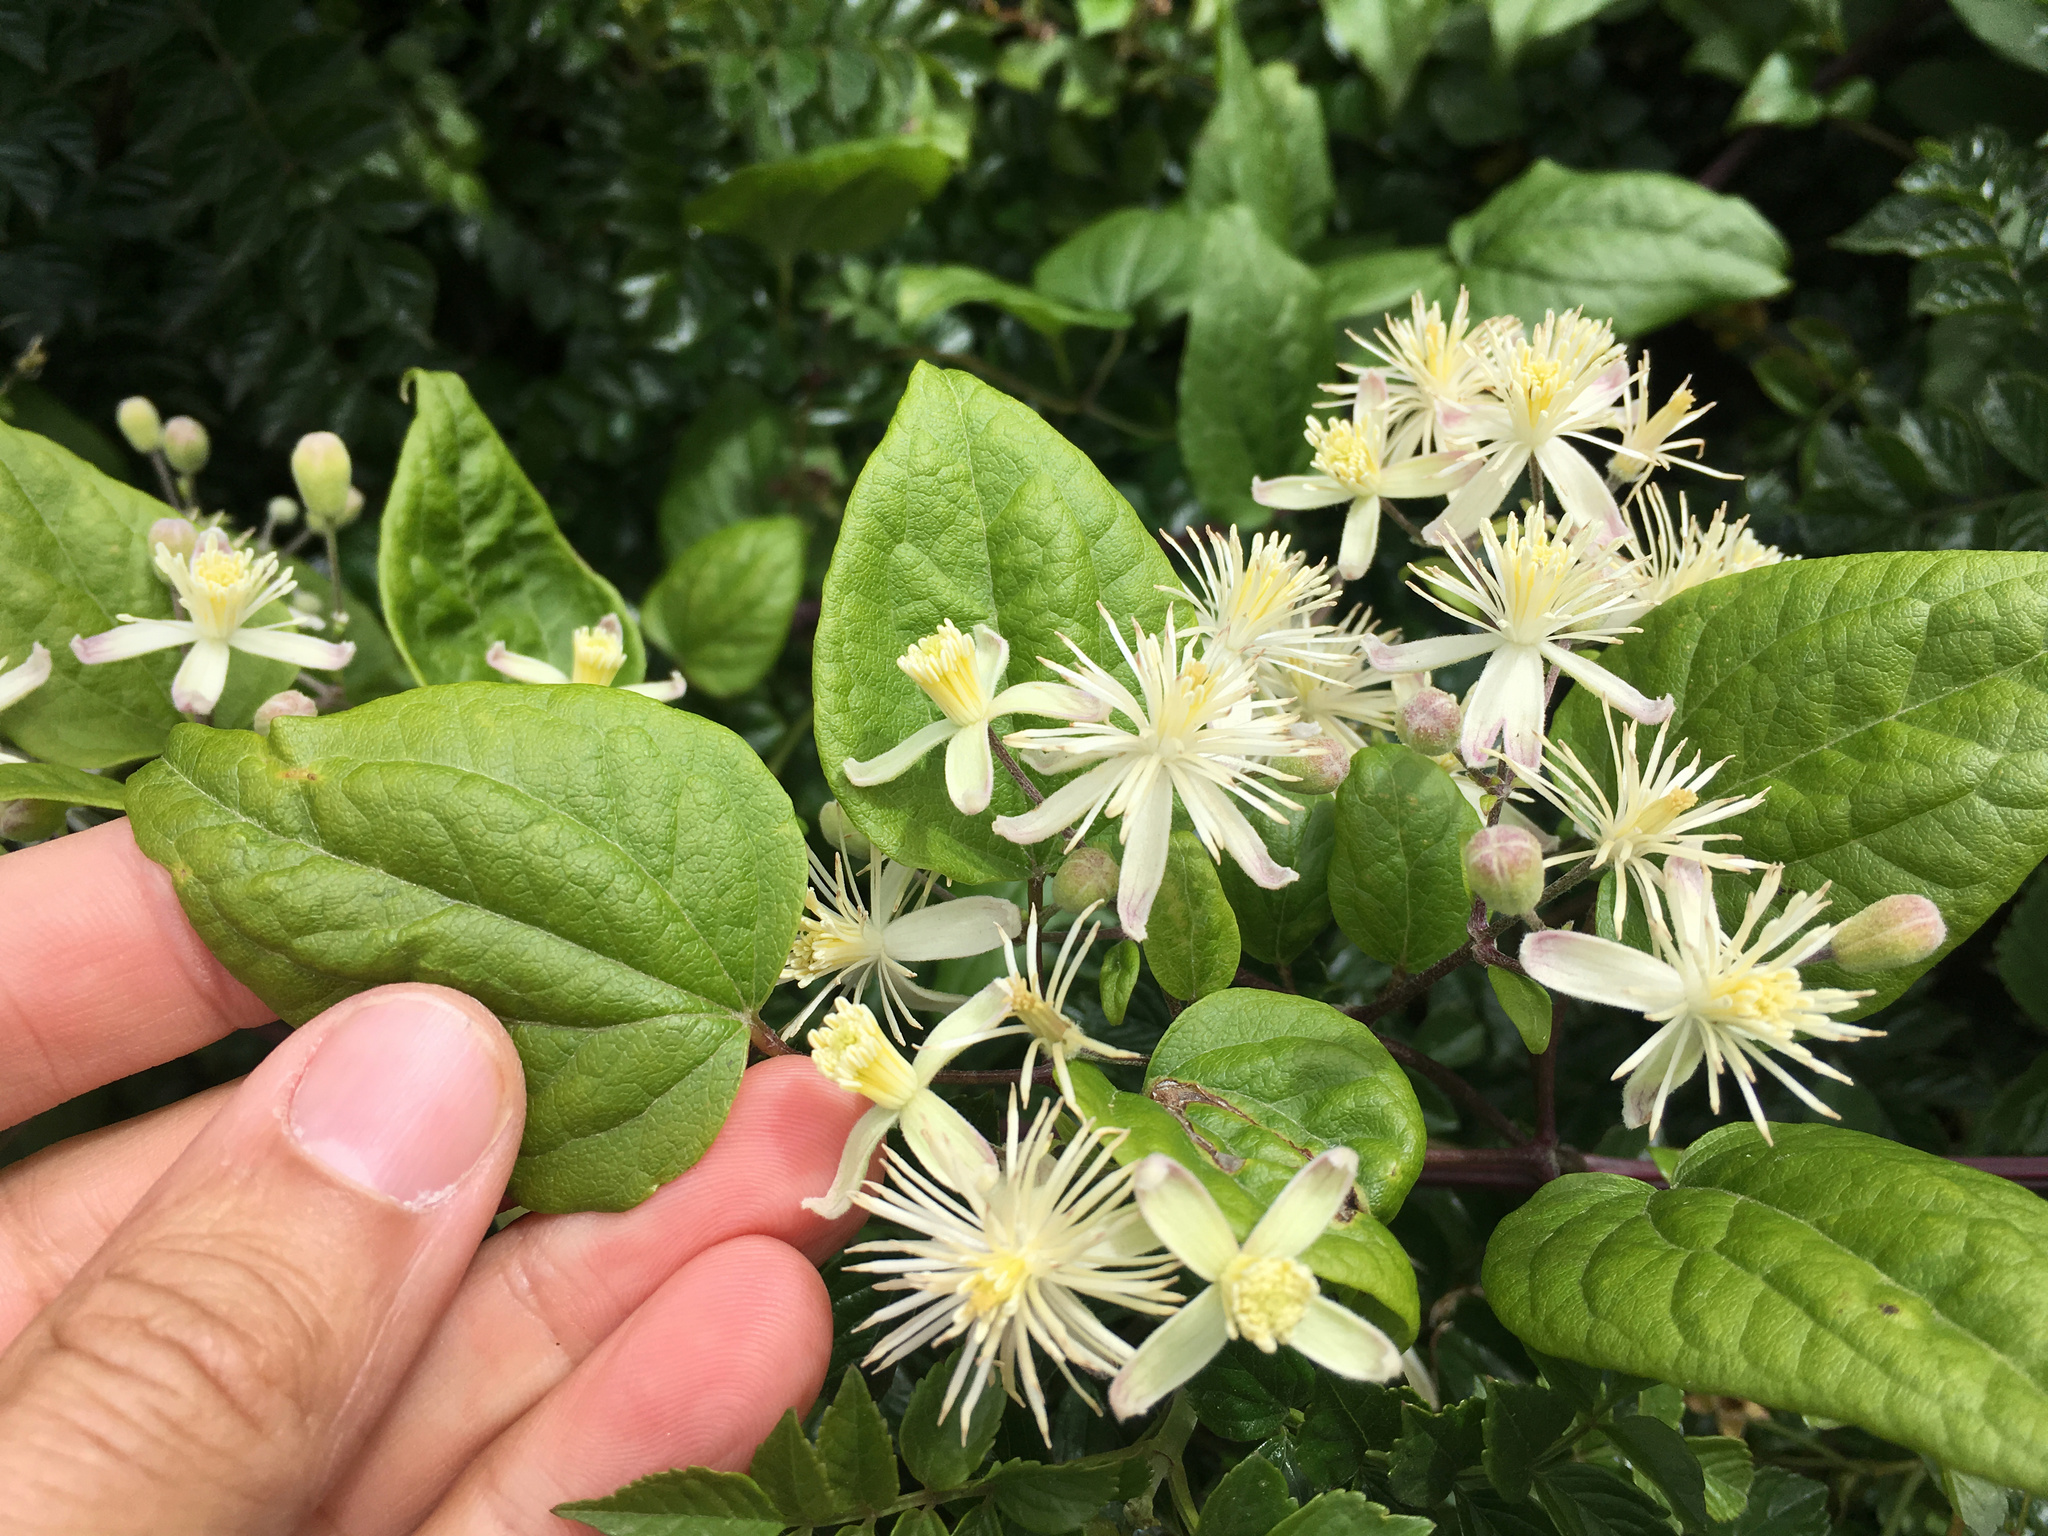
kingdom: Plantae
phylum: Tracheophyta
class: Magnoliopsida
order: Ranunculales
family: Ranunculaceae
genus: Clematis
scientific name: Clematis vitalba
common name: Evergreen clematis
